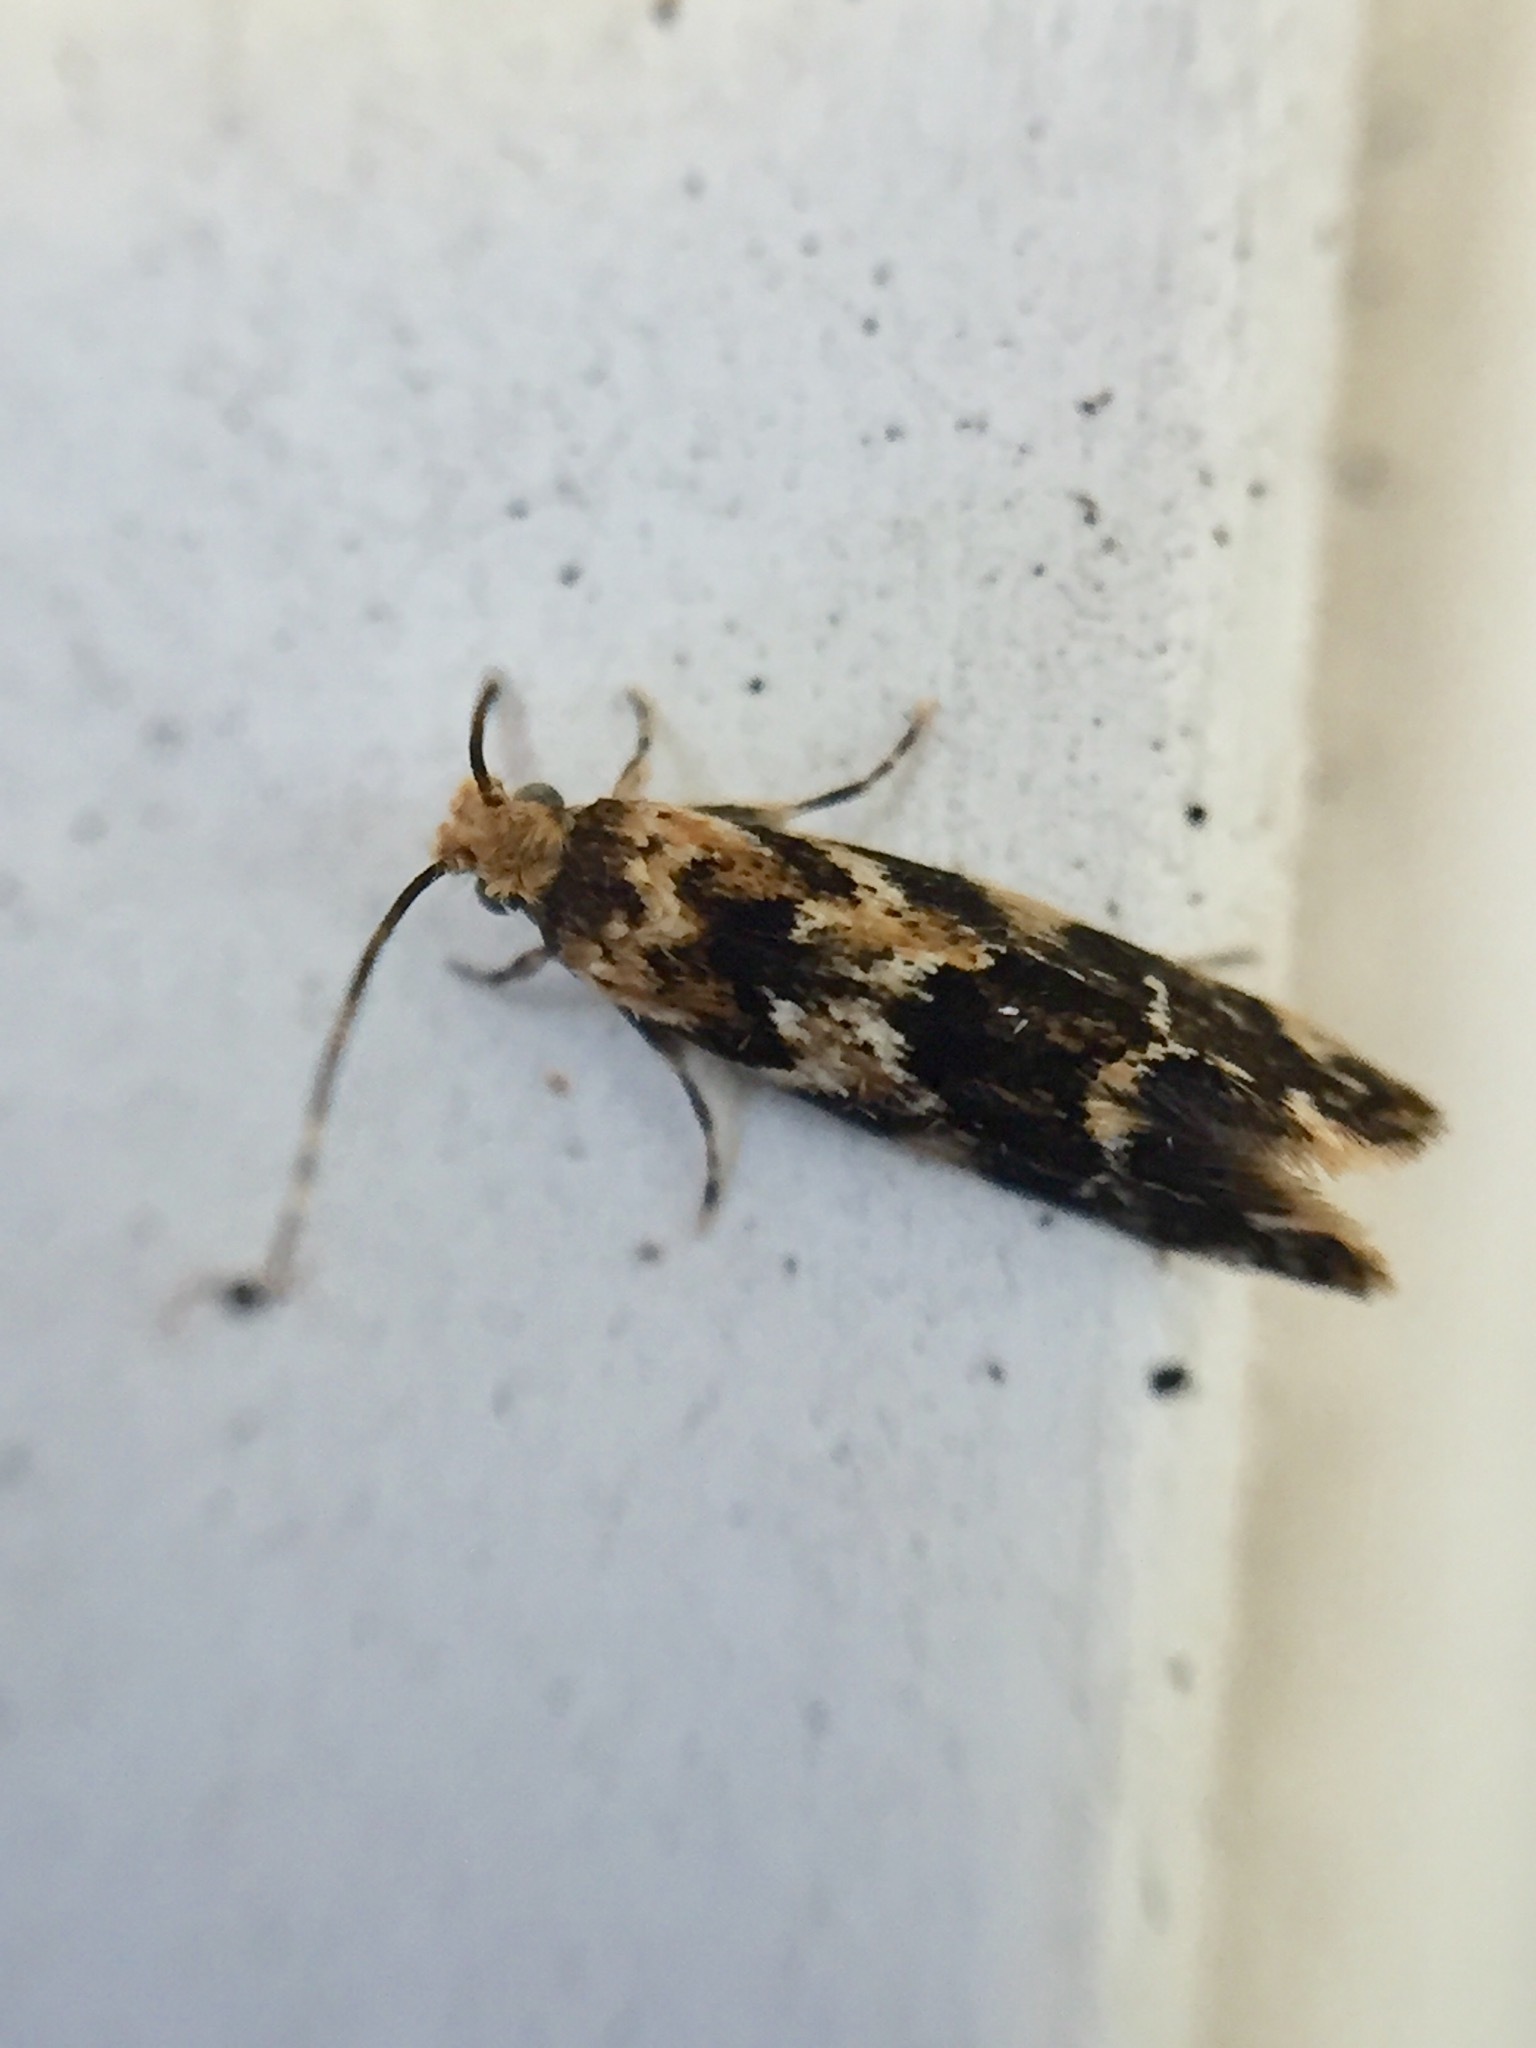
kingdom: Animalia
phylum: Arthropoda
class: Insecta
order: Lepidoptera
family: Dryadaulidae
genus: Dryadaula
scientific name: Dryadaula pactolia
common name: Cellar clothes
